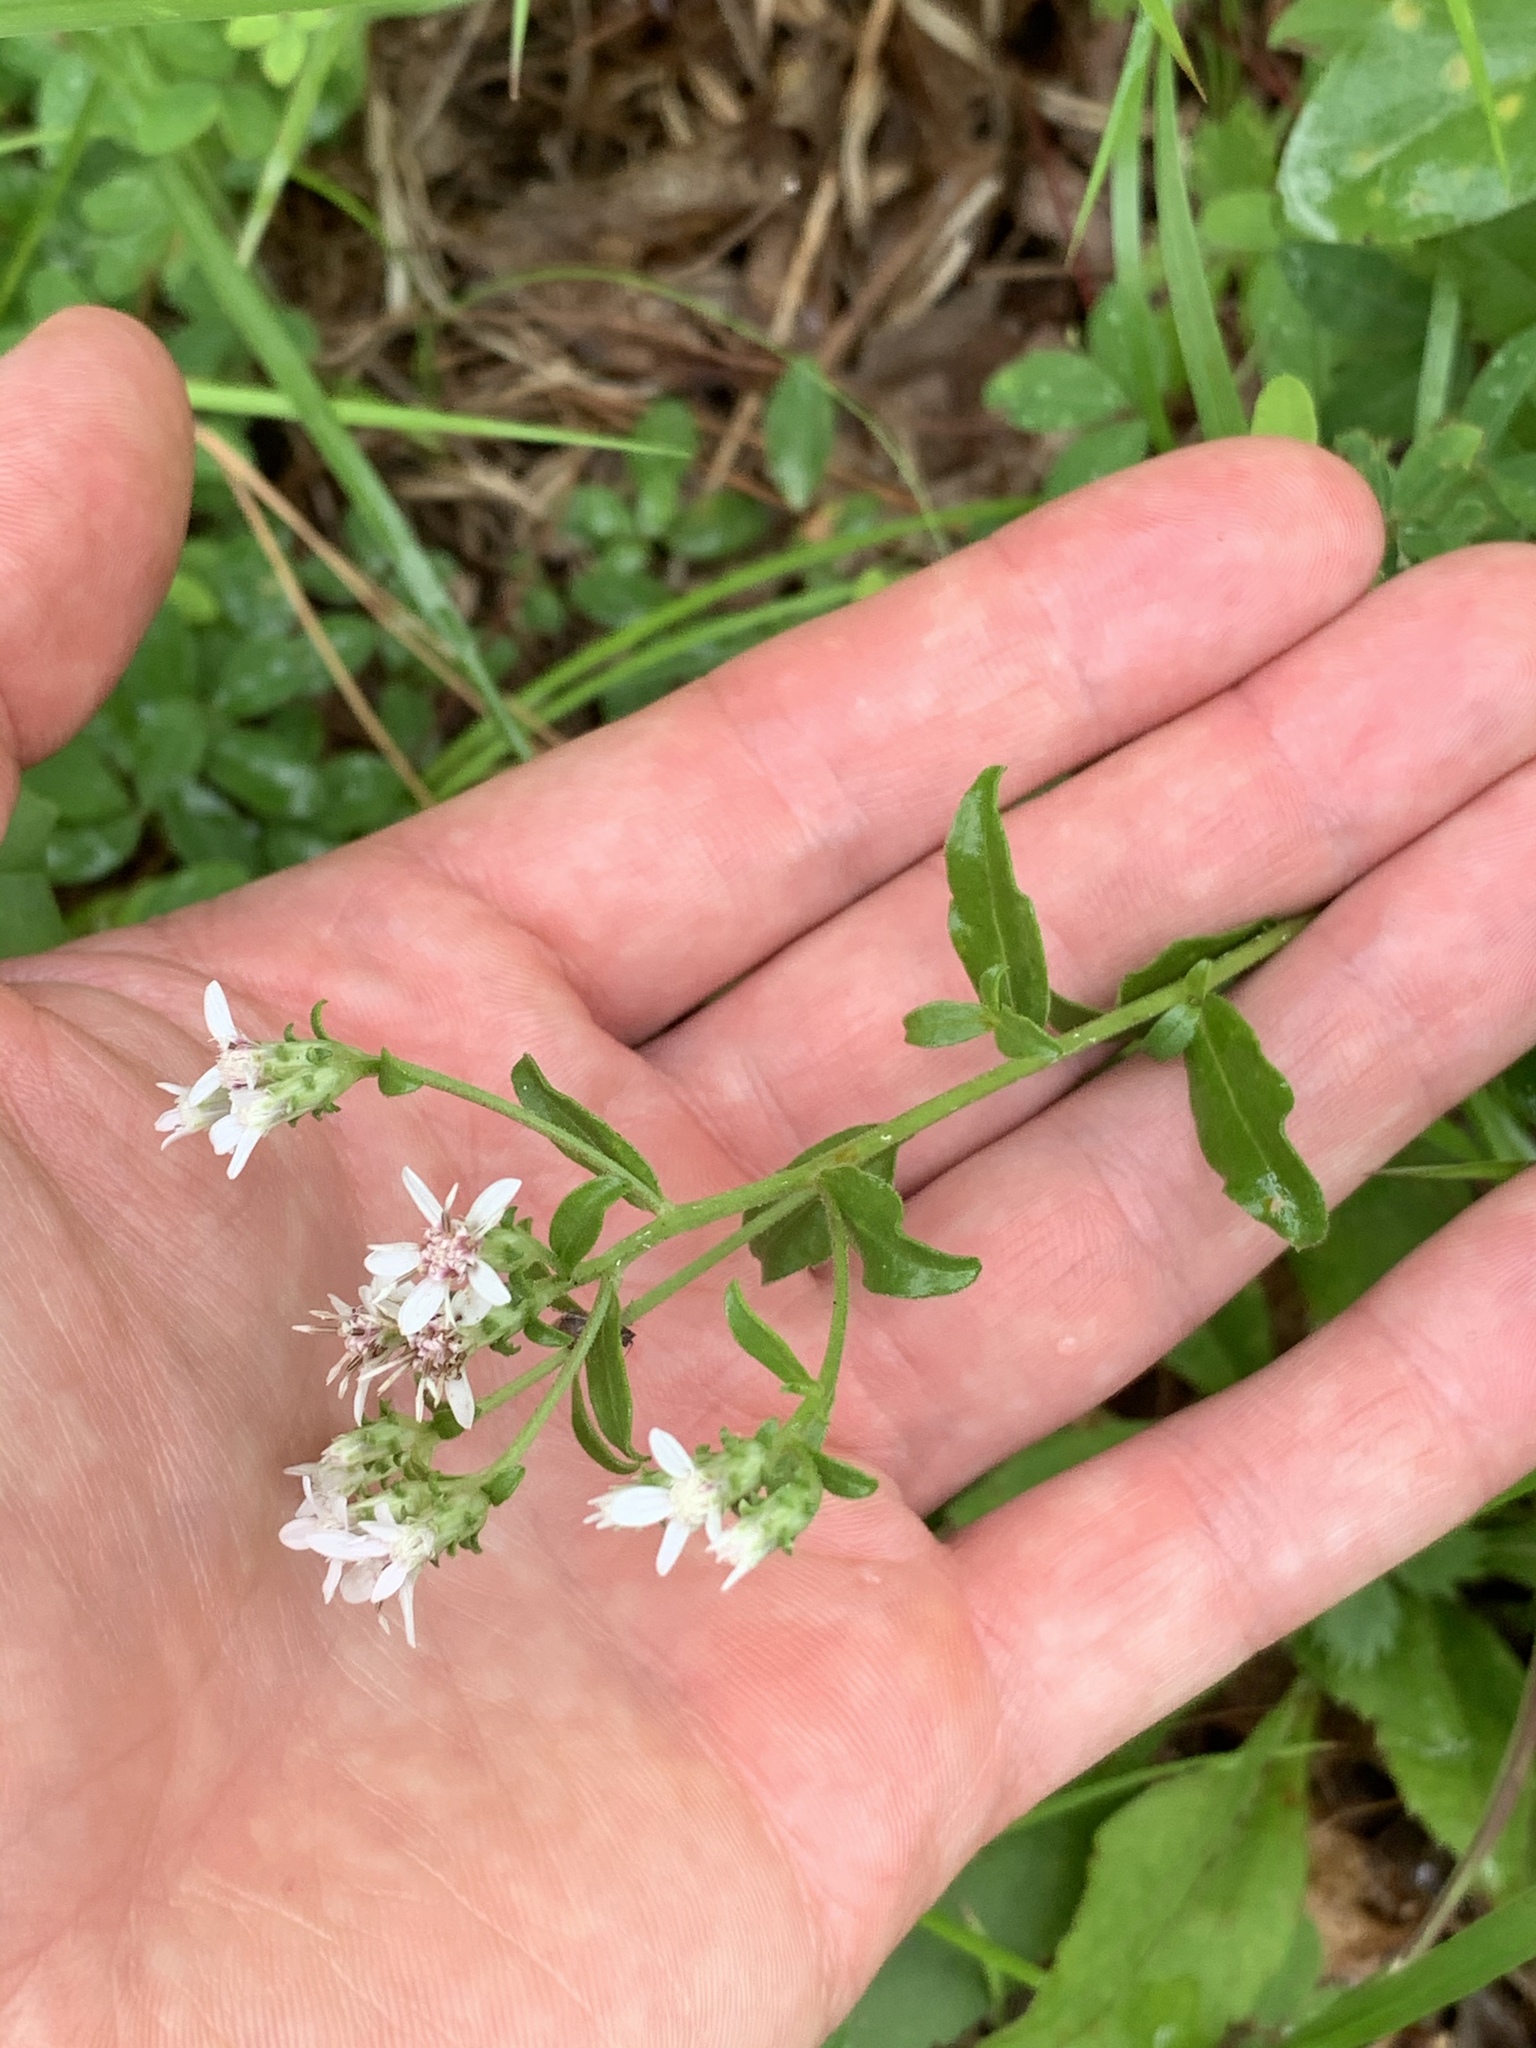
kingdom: Plantae
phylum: Tracheophyta
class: Magnoliopsida
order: Asterales
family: Asteraceae
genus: Sericocarpus
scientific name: Sericocarpus asteroides
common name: Toothed white-top aster
